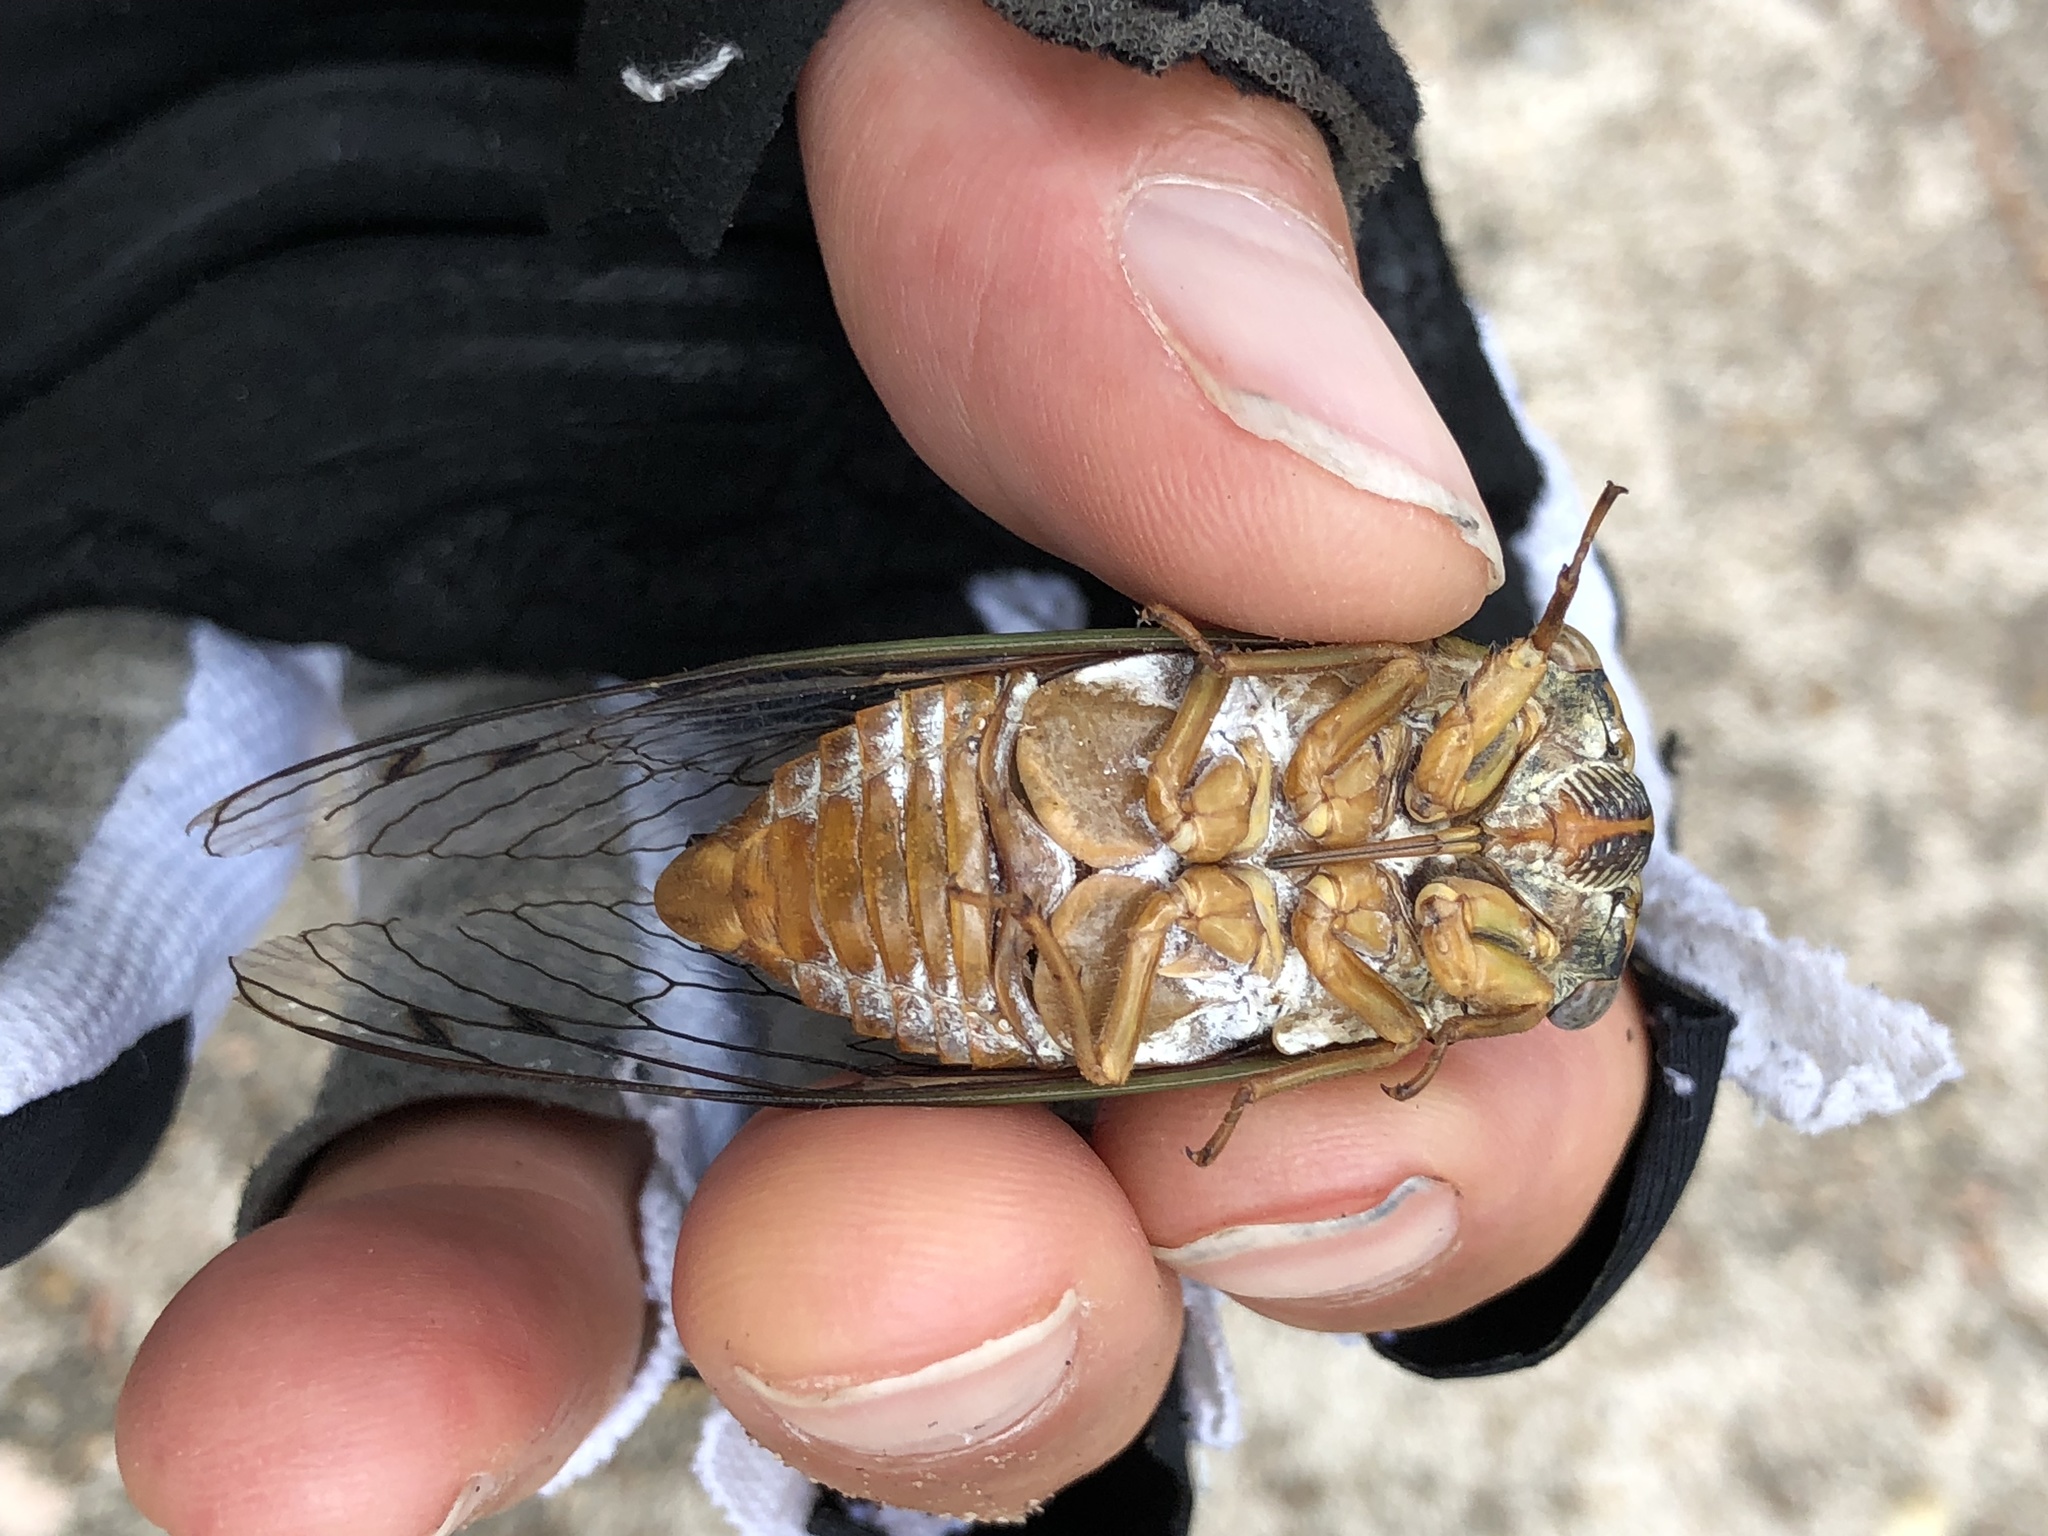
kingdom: Animalia
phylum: Arthropoda
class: Insecta
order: Hemiptera
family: Cicadidae
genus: Megatibicen
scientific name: Megatibicen resh
